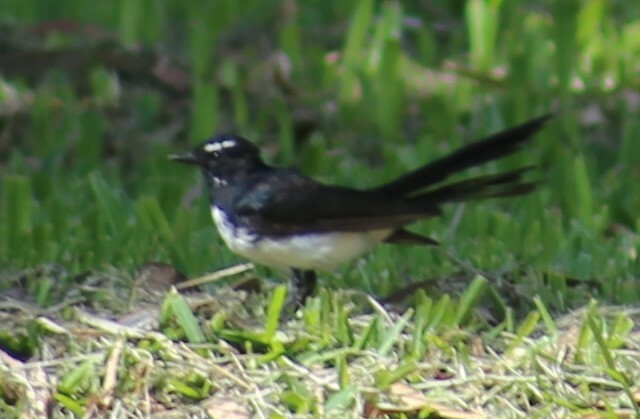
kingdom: Animalia
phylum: Chordata
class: Aves
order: Passeriformes
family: Rhipiduridae
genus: Rhipidura
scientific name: Rhipidura leucophrys
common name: Willie wagtail
